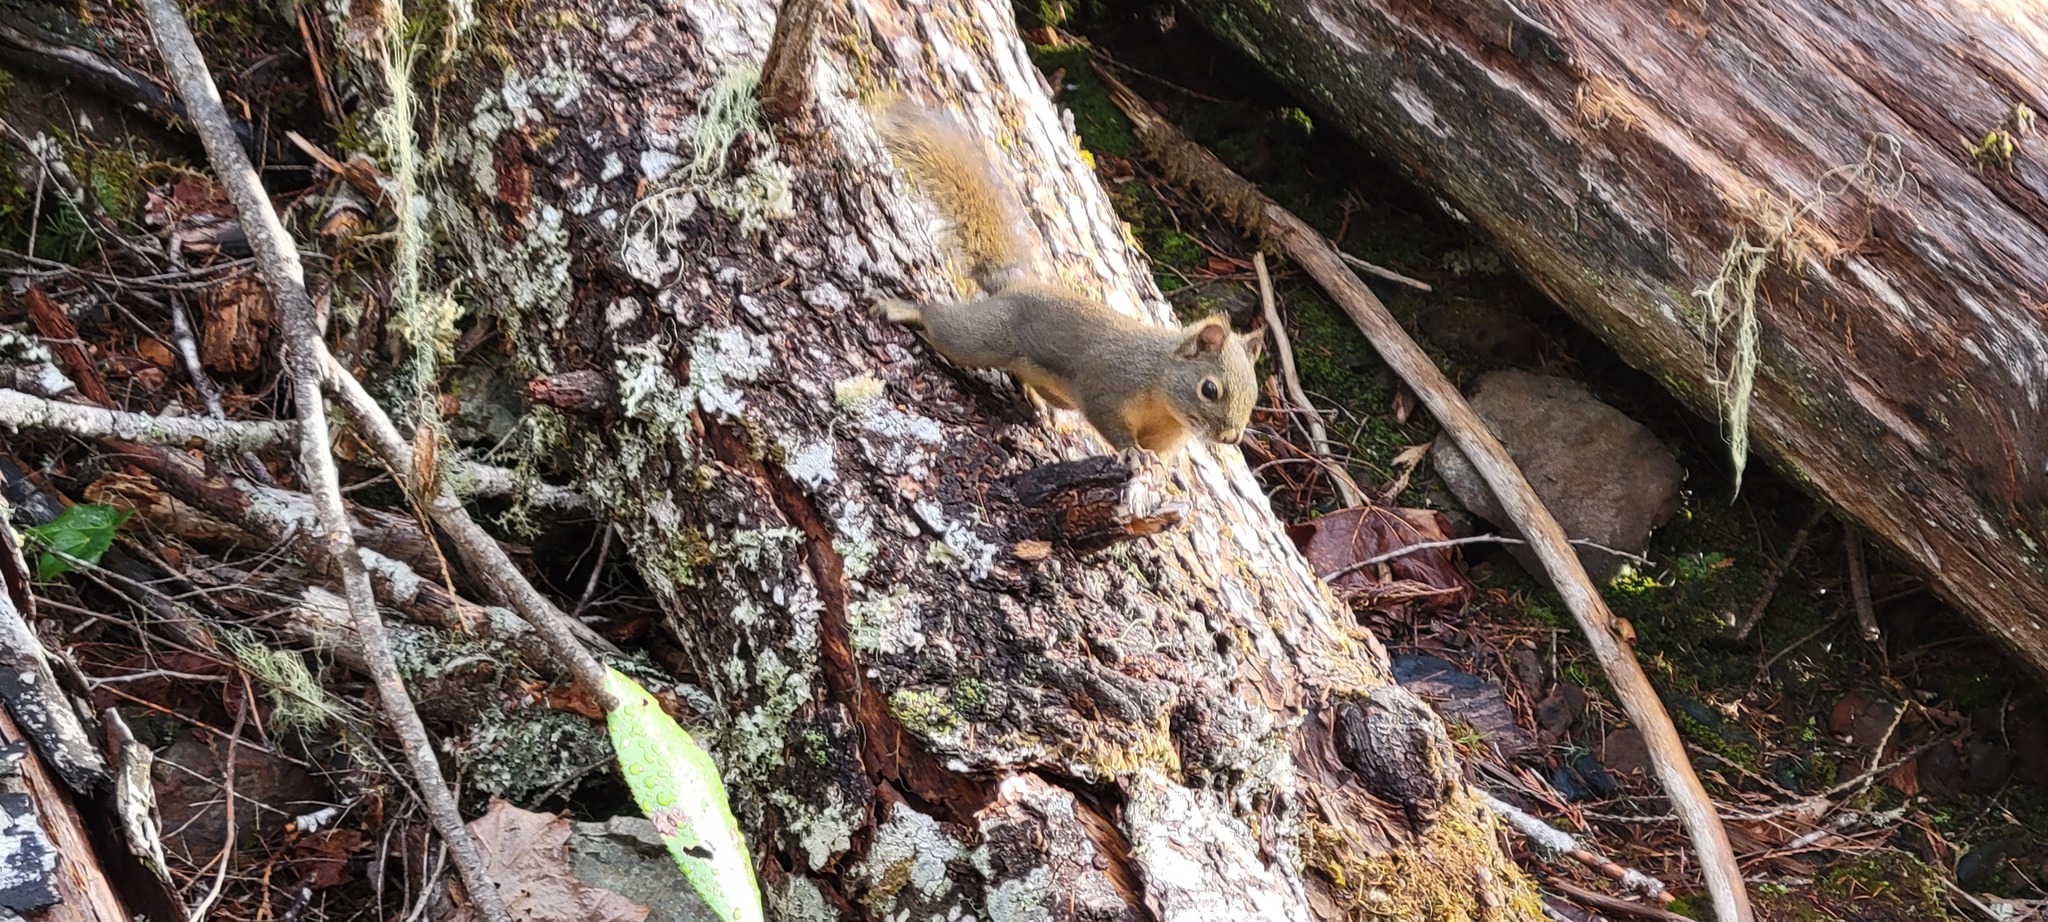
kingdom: Animalia
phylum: Chordata
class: Mammalia
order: Rodentia
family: Sciuridae
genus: Tamiasciurus
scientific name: Tamiasciurus douglasii
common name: Douglas's squirrel
